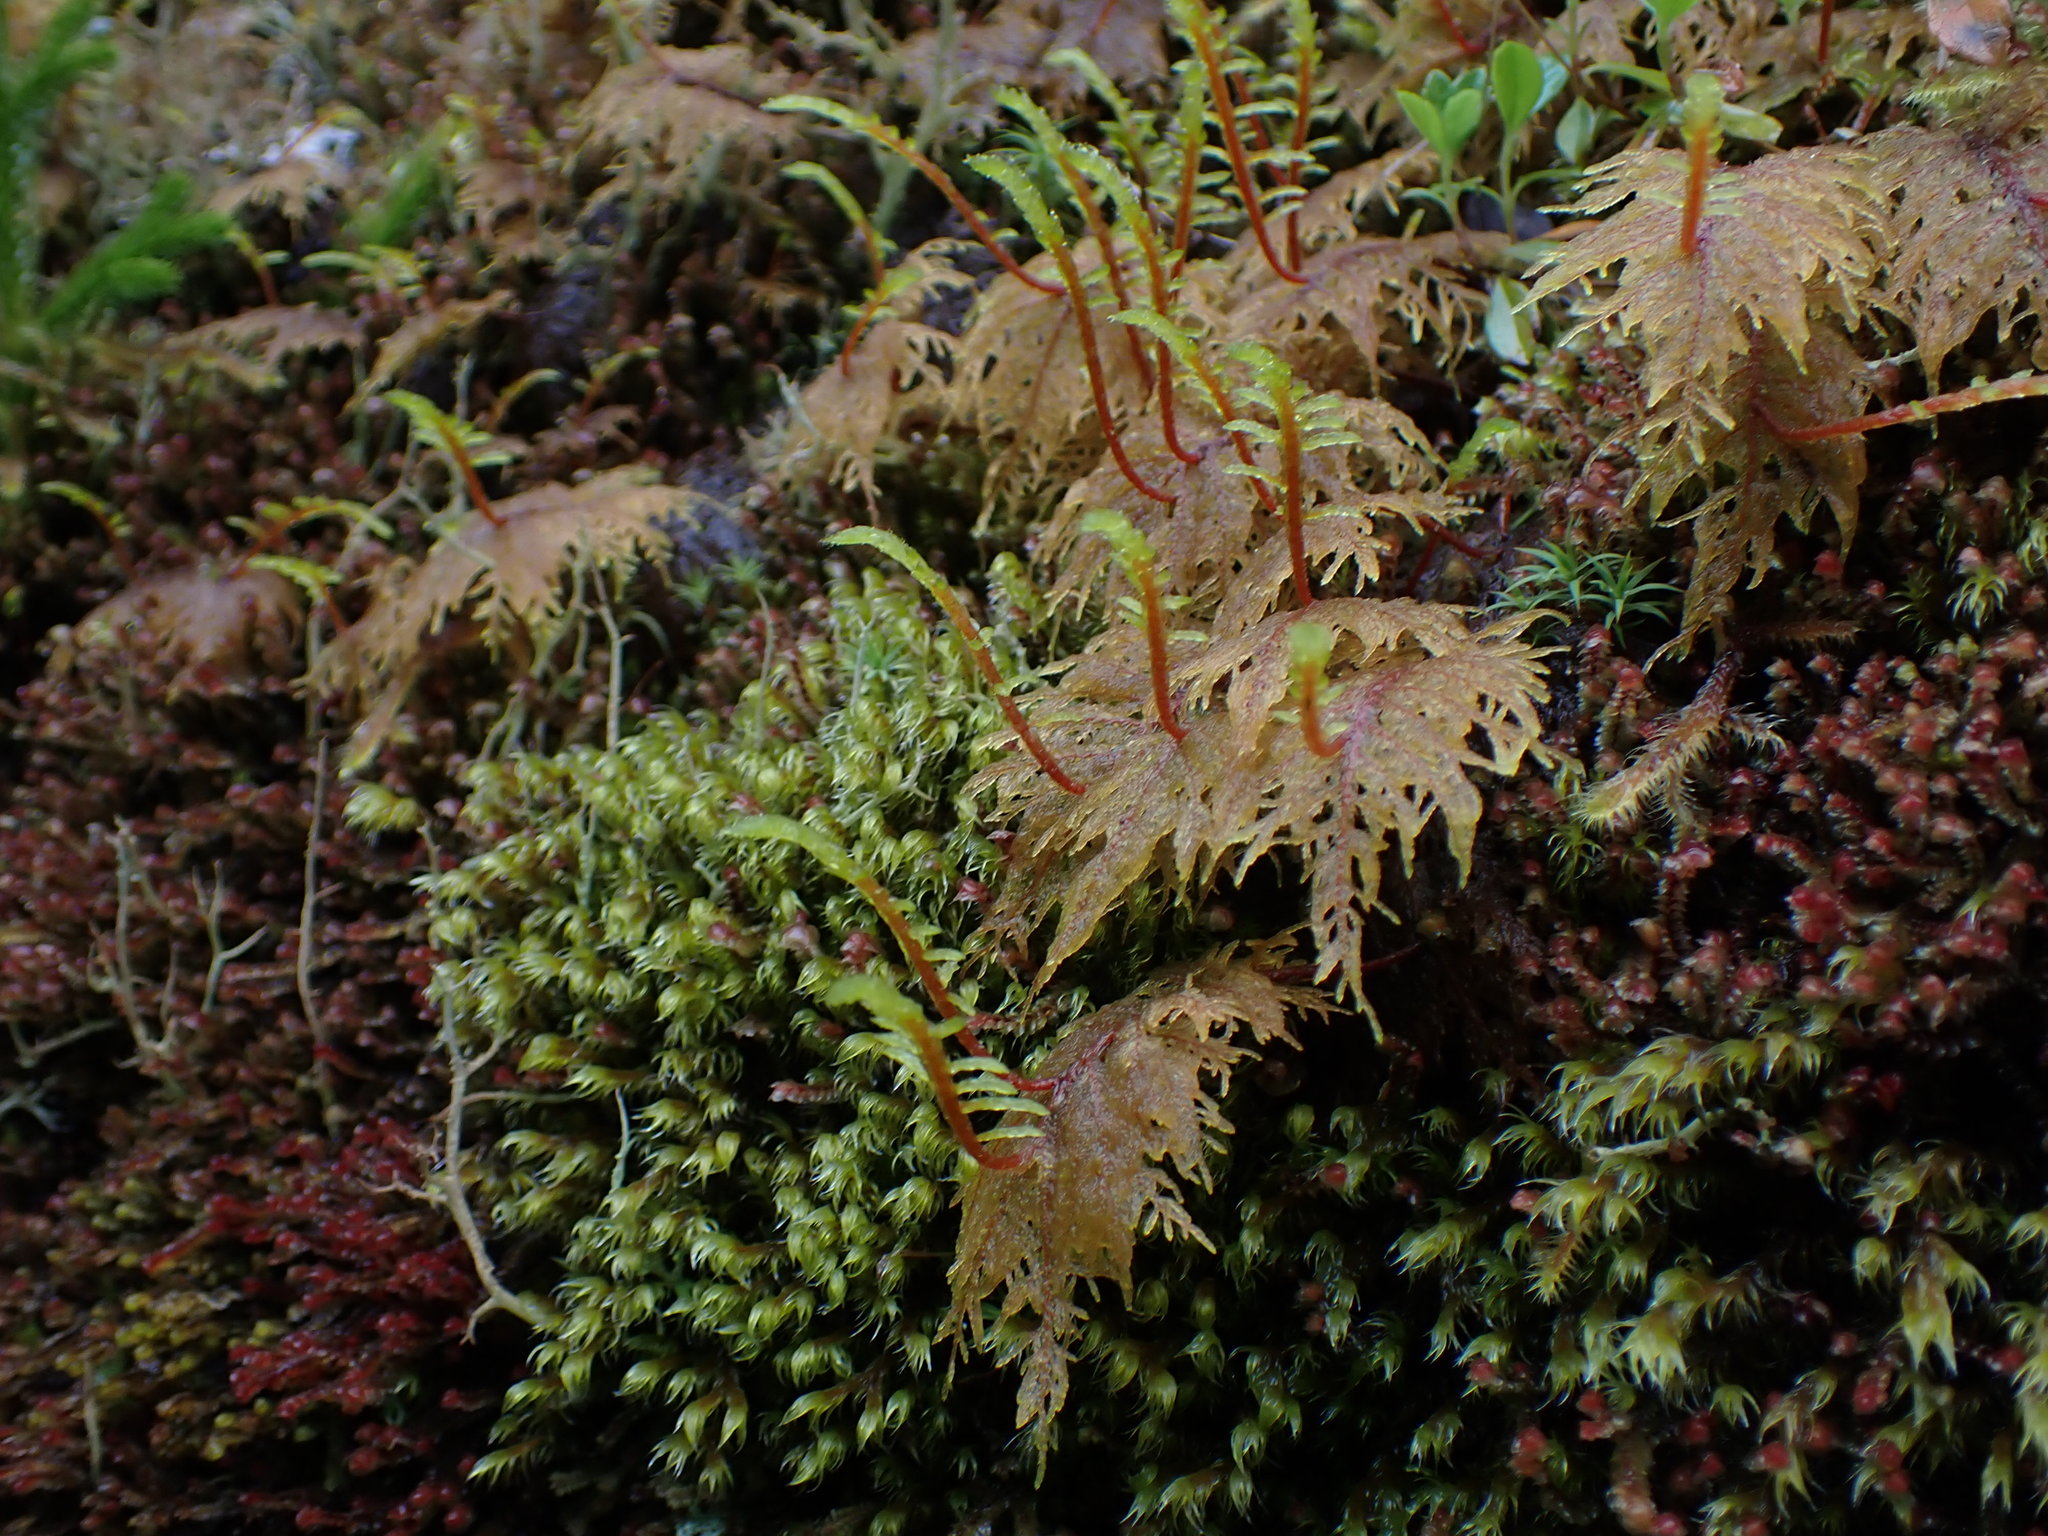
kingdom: Plantae
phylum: Bryophyta
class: Bryopsida
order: Hypnales
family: Hylocomiaceae
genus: Hylocomium
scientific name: Hylocomium splendens
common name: Stairstep moss
